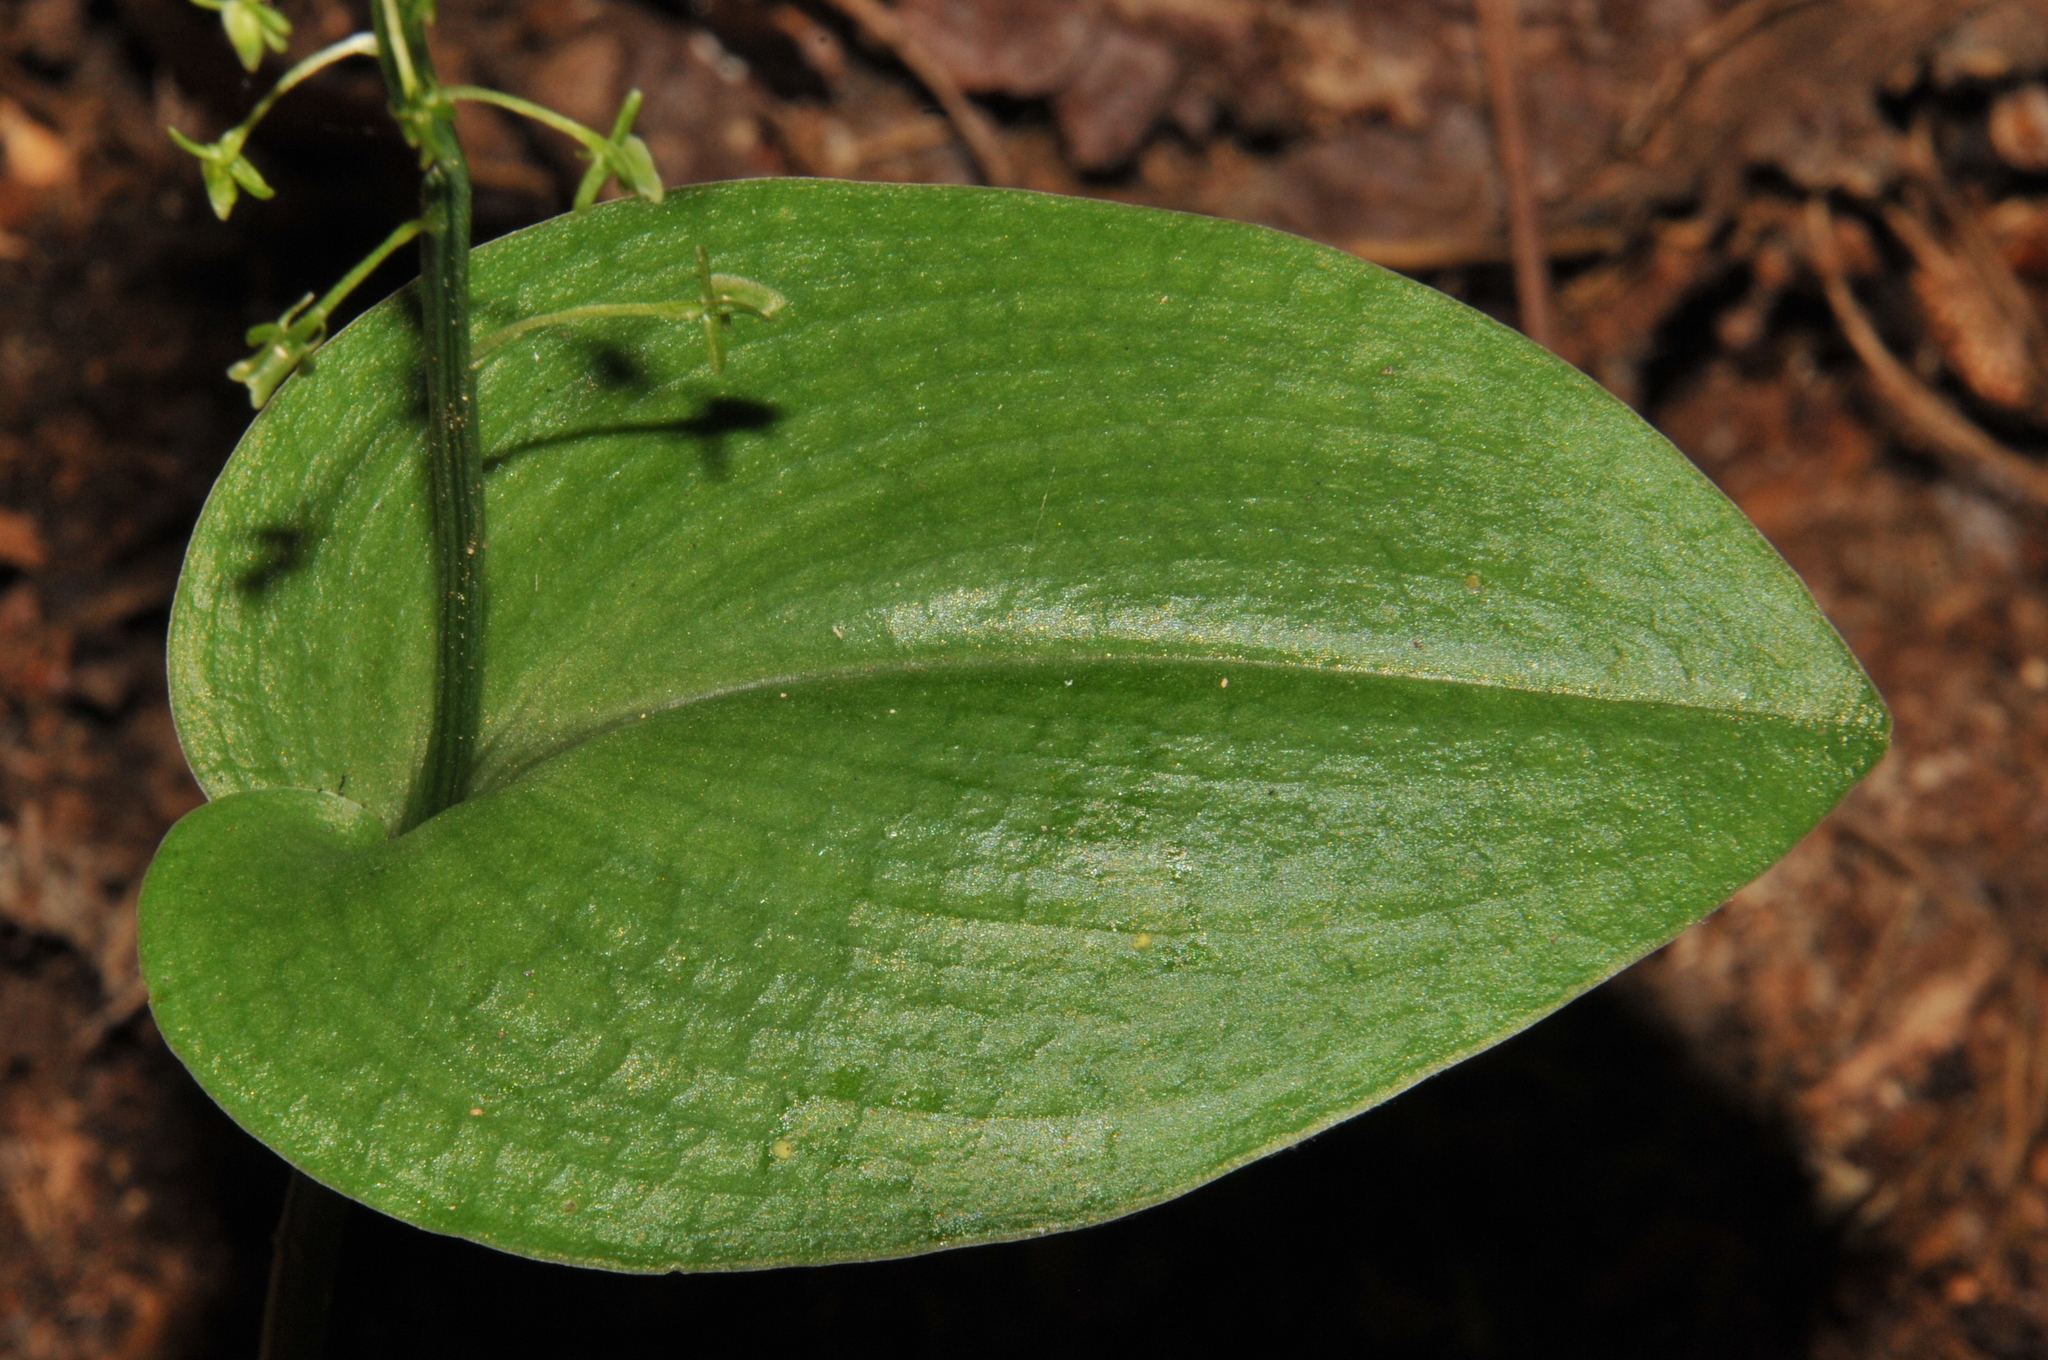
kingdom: Plantae
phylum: Tracheophyta
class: Liliopsida
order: Asparagales
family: Orchidaceae
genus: Malaxis
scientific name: Malaxis unifolia
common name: Green adder's-mouth
